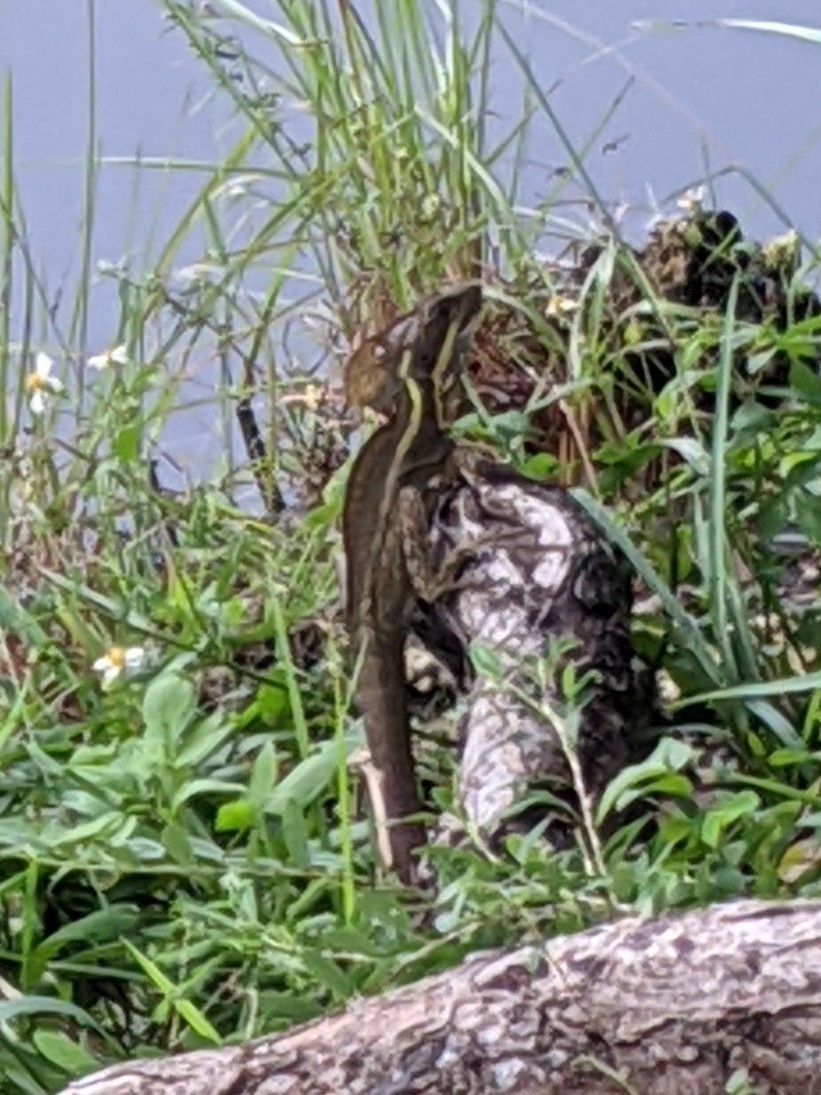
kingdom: Animalia
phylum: Chordata
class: Squamata
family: Corytophanidae
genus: Basiliscus
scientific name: Basiliscus vittatus
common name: Brown basilisk
